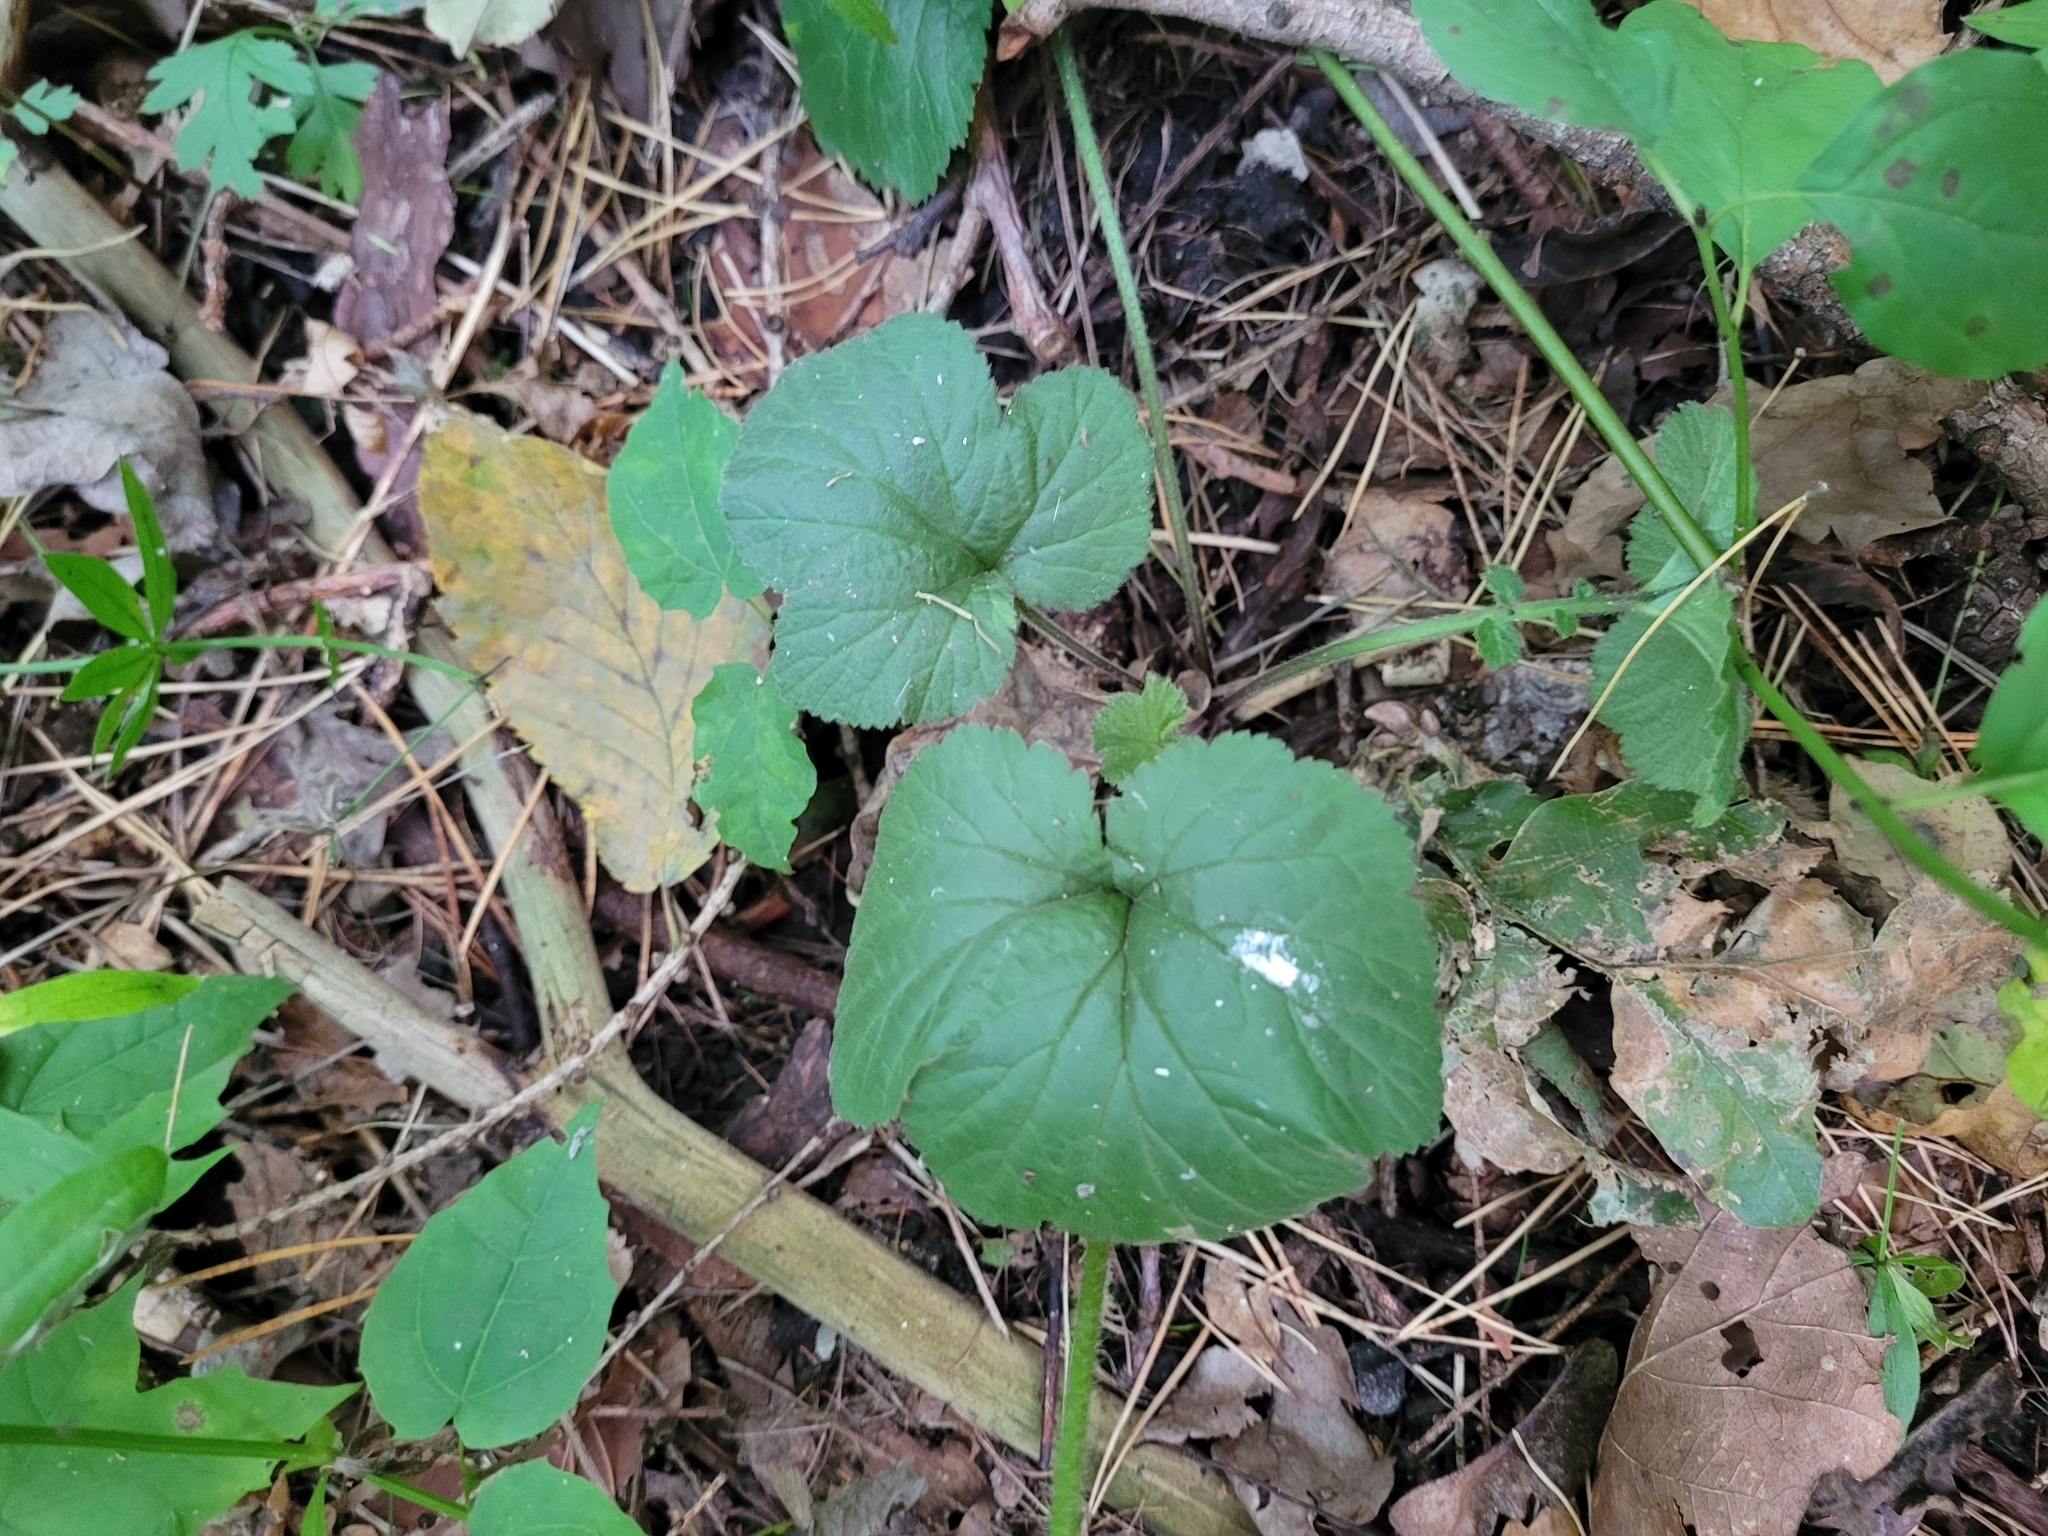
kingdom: Plantae
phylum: Tracheophyta
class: Magnoliopsida
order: Rosales
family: Rosaceae
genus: Geum
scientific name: Geum urbanum
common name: Wood avens
